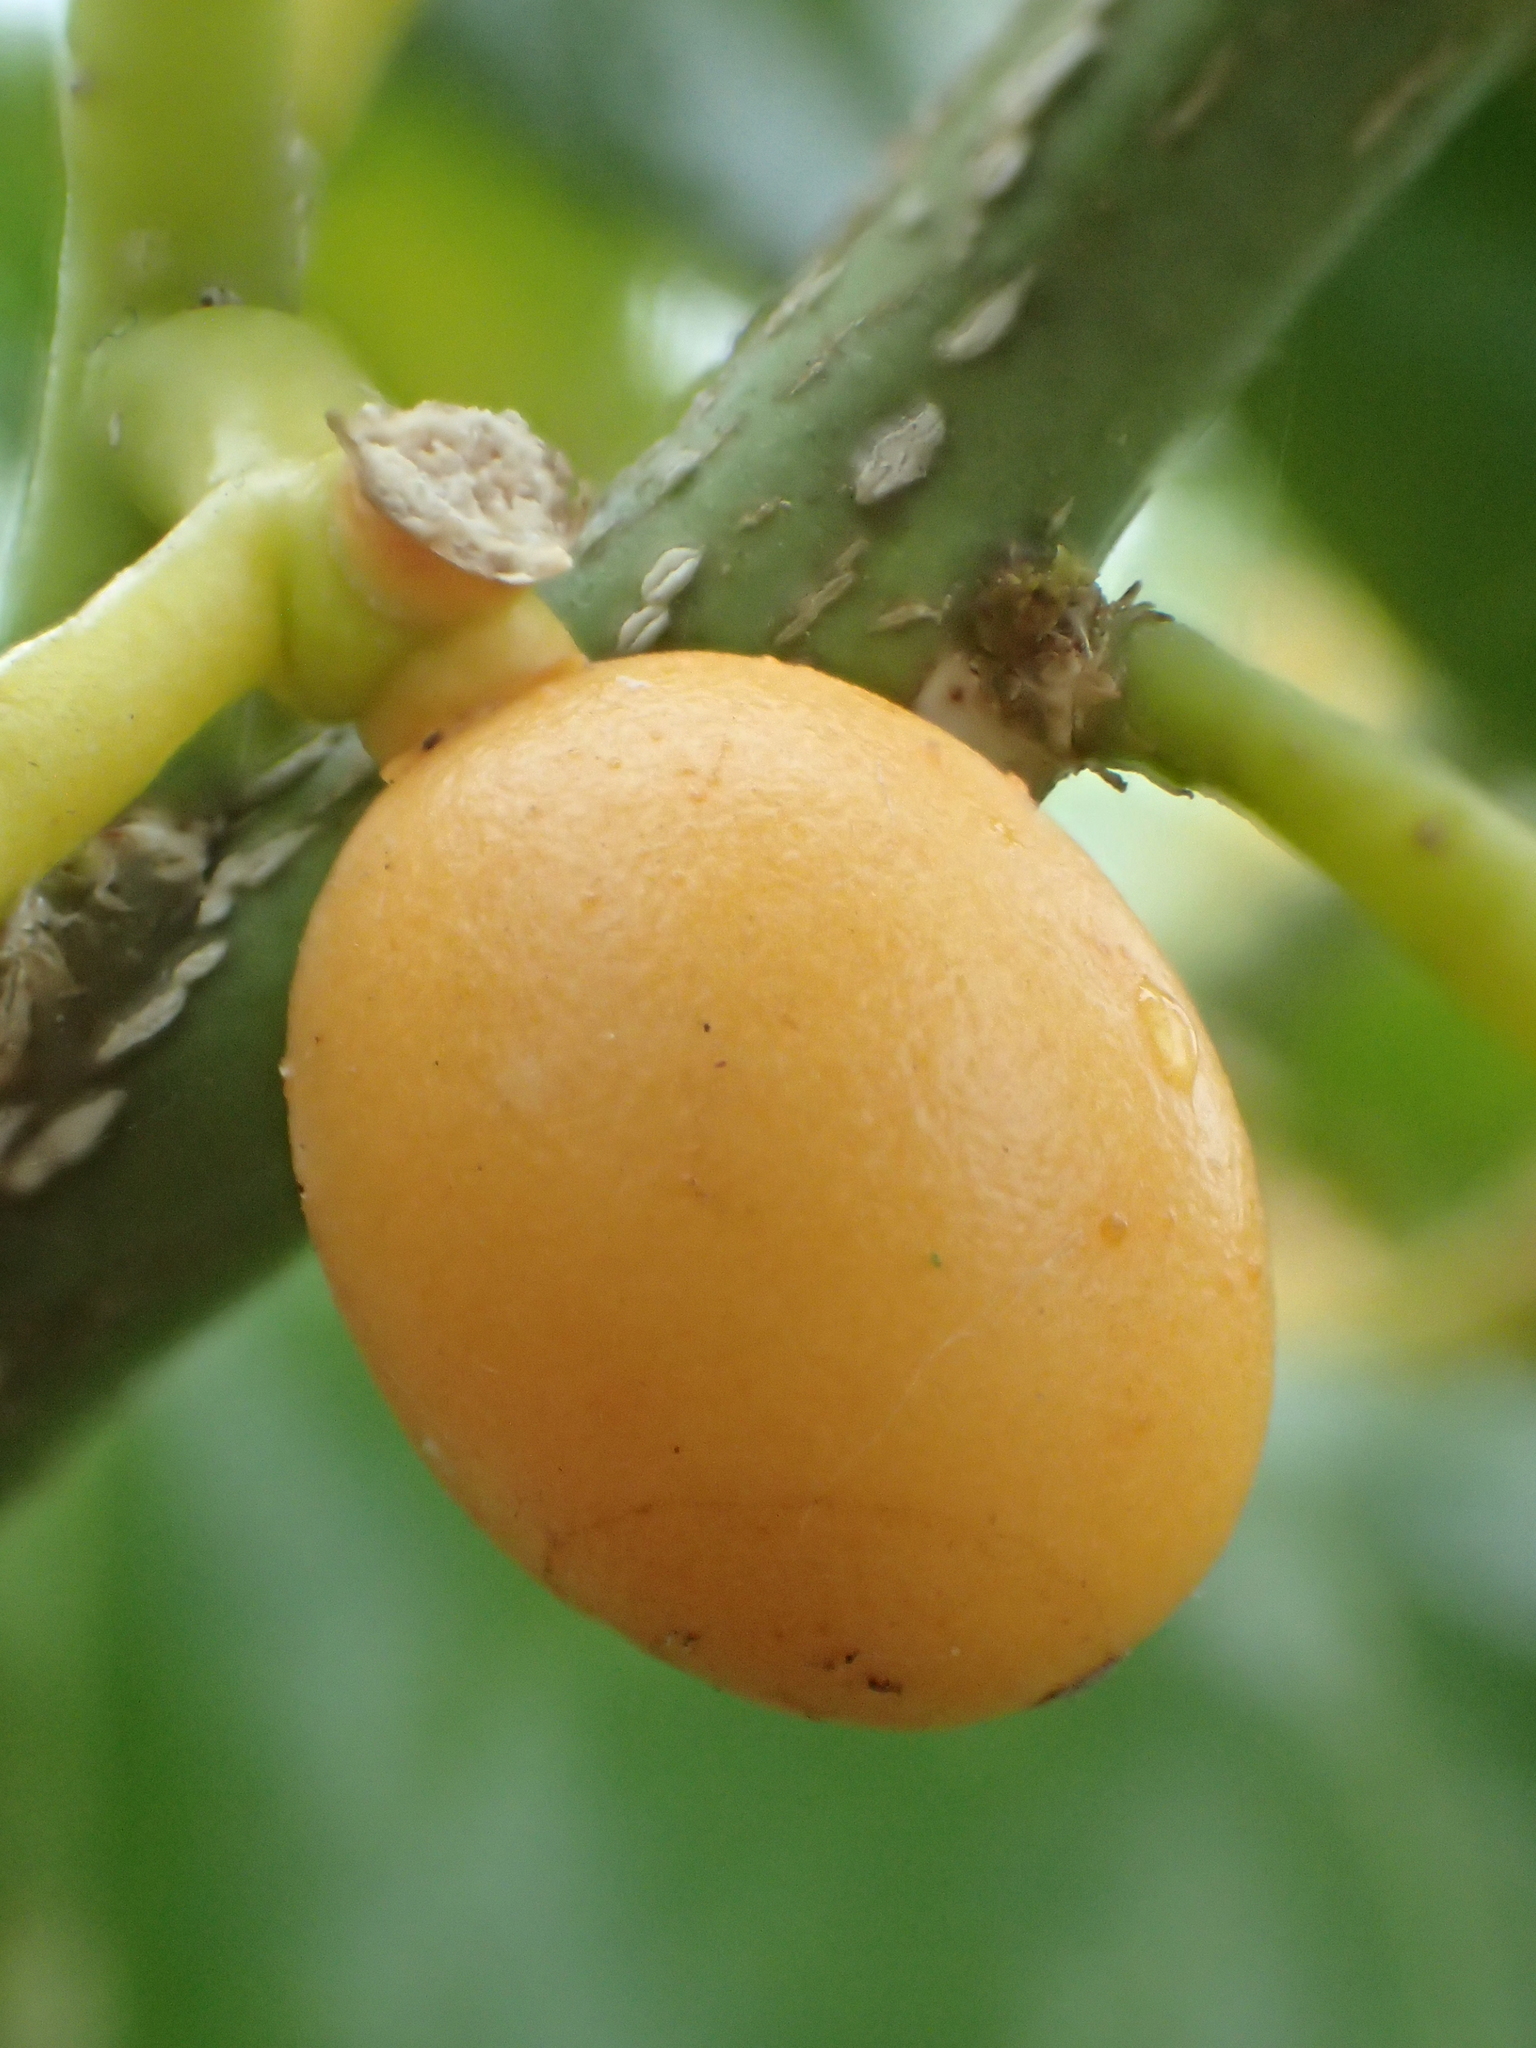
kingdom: Plantae
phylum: Tracheophyta
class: Magnoliopsida
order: Santalales
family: Opiliaceae
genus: Champereia
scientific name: Champereia manillana
